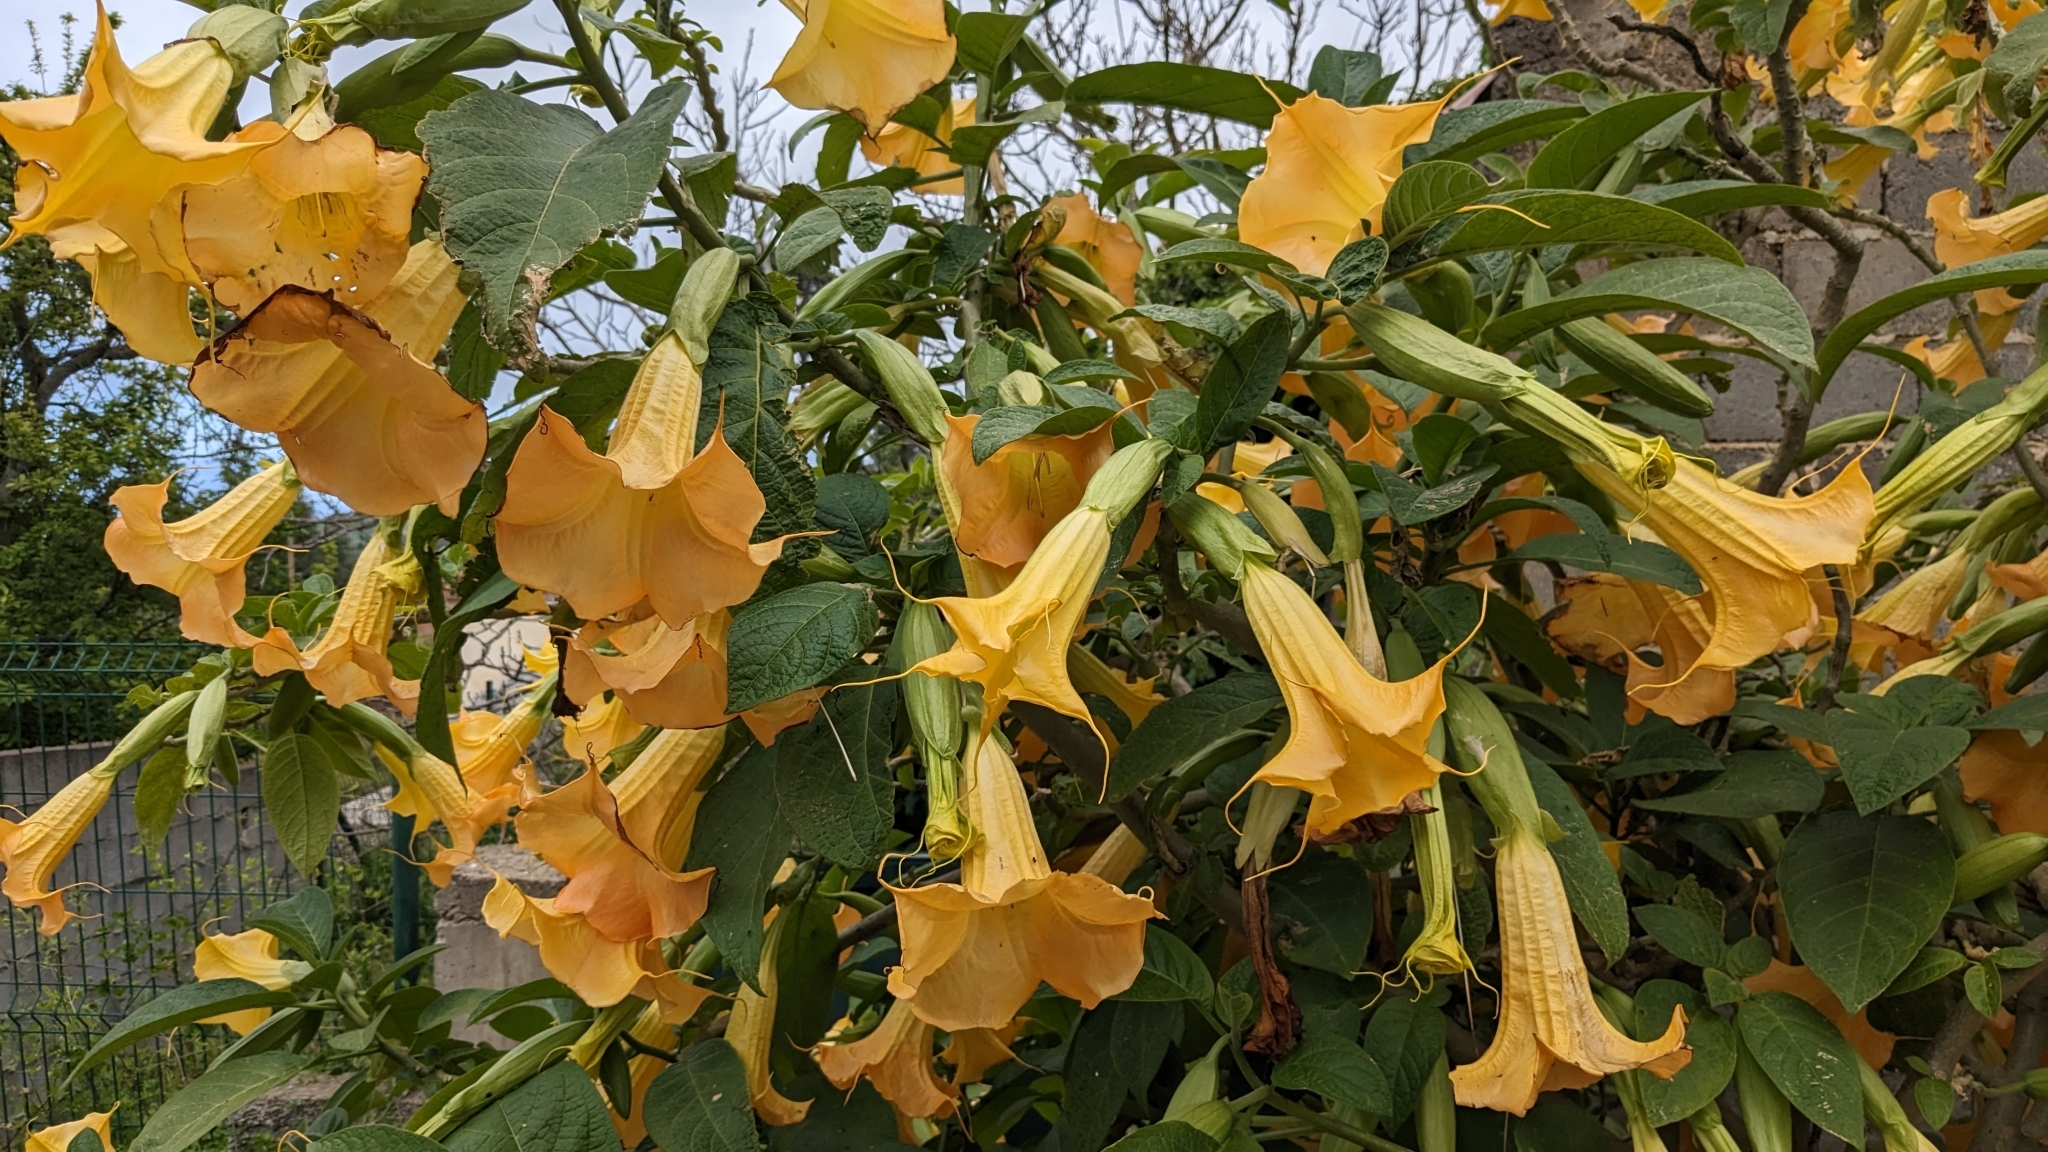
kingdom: Plantae
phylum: Tracheophyta
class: Magnoliopsida
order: Solanales
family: Solanaceae
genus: Brugmansia
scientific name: Brugmansia arborea
